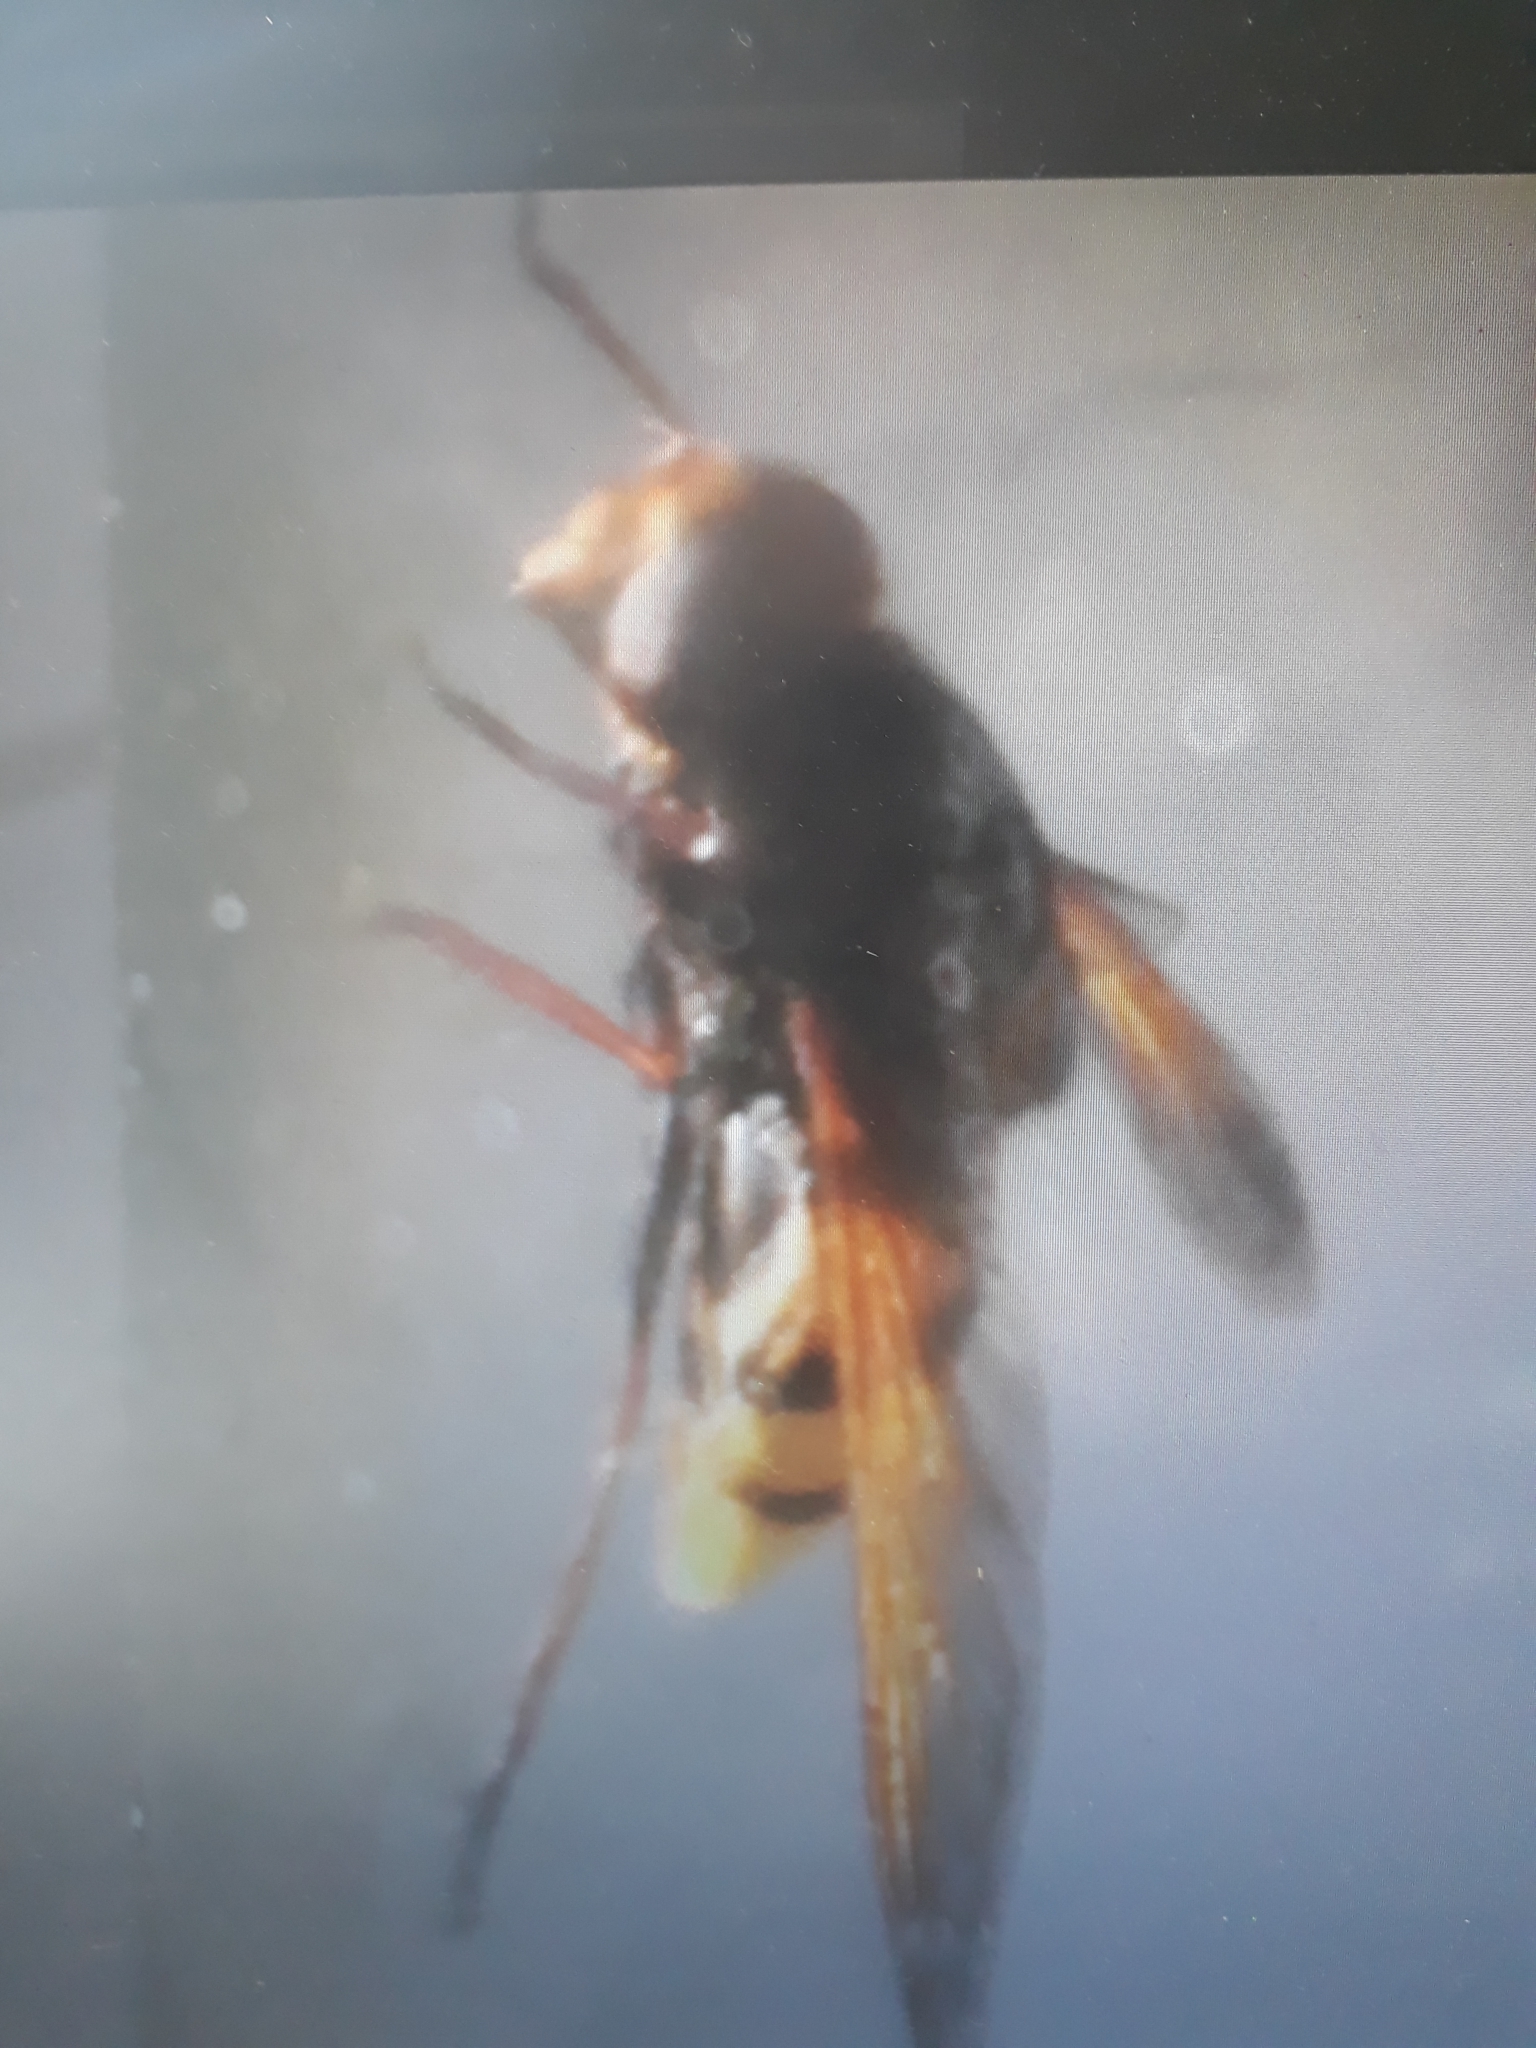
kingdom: Animalia
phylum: Arthropoda
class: Insecta
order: Diptera
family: Syrphidae
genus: Volucella
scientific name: Volucella zonaria
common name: Hornet hoverfly
